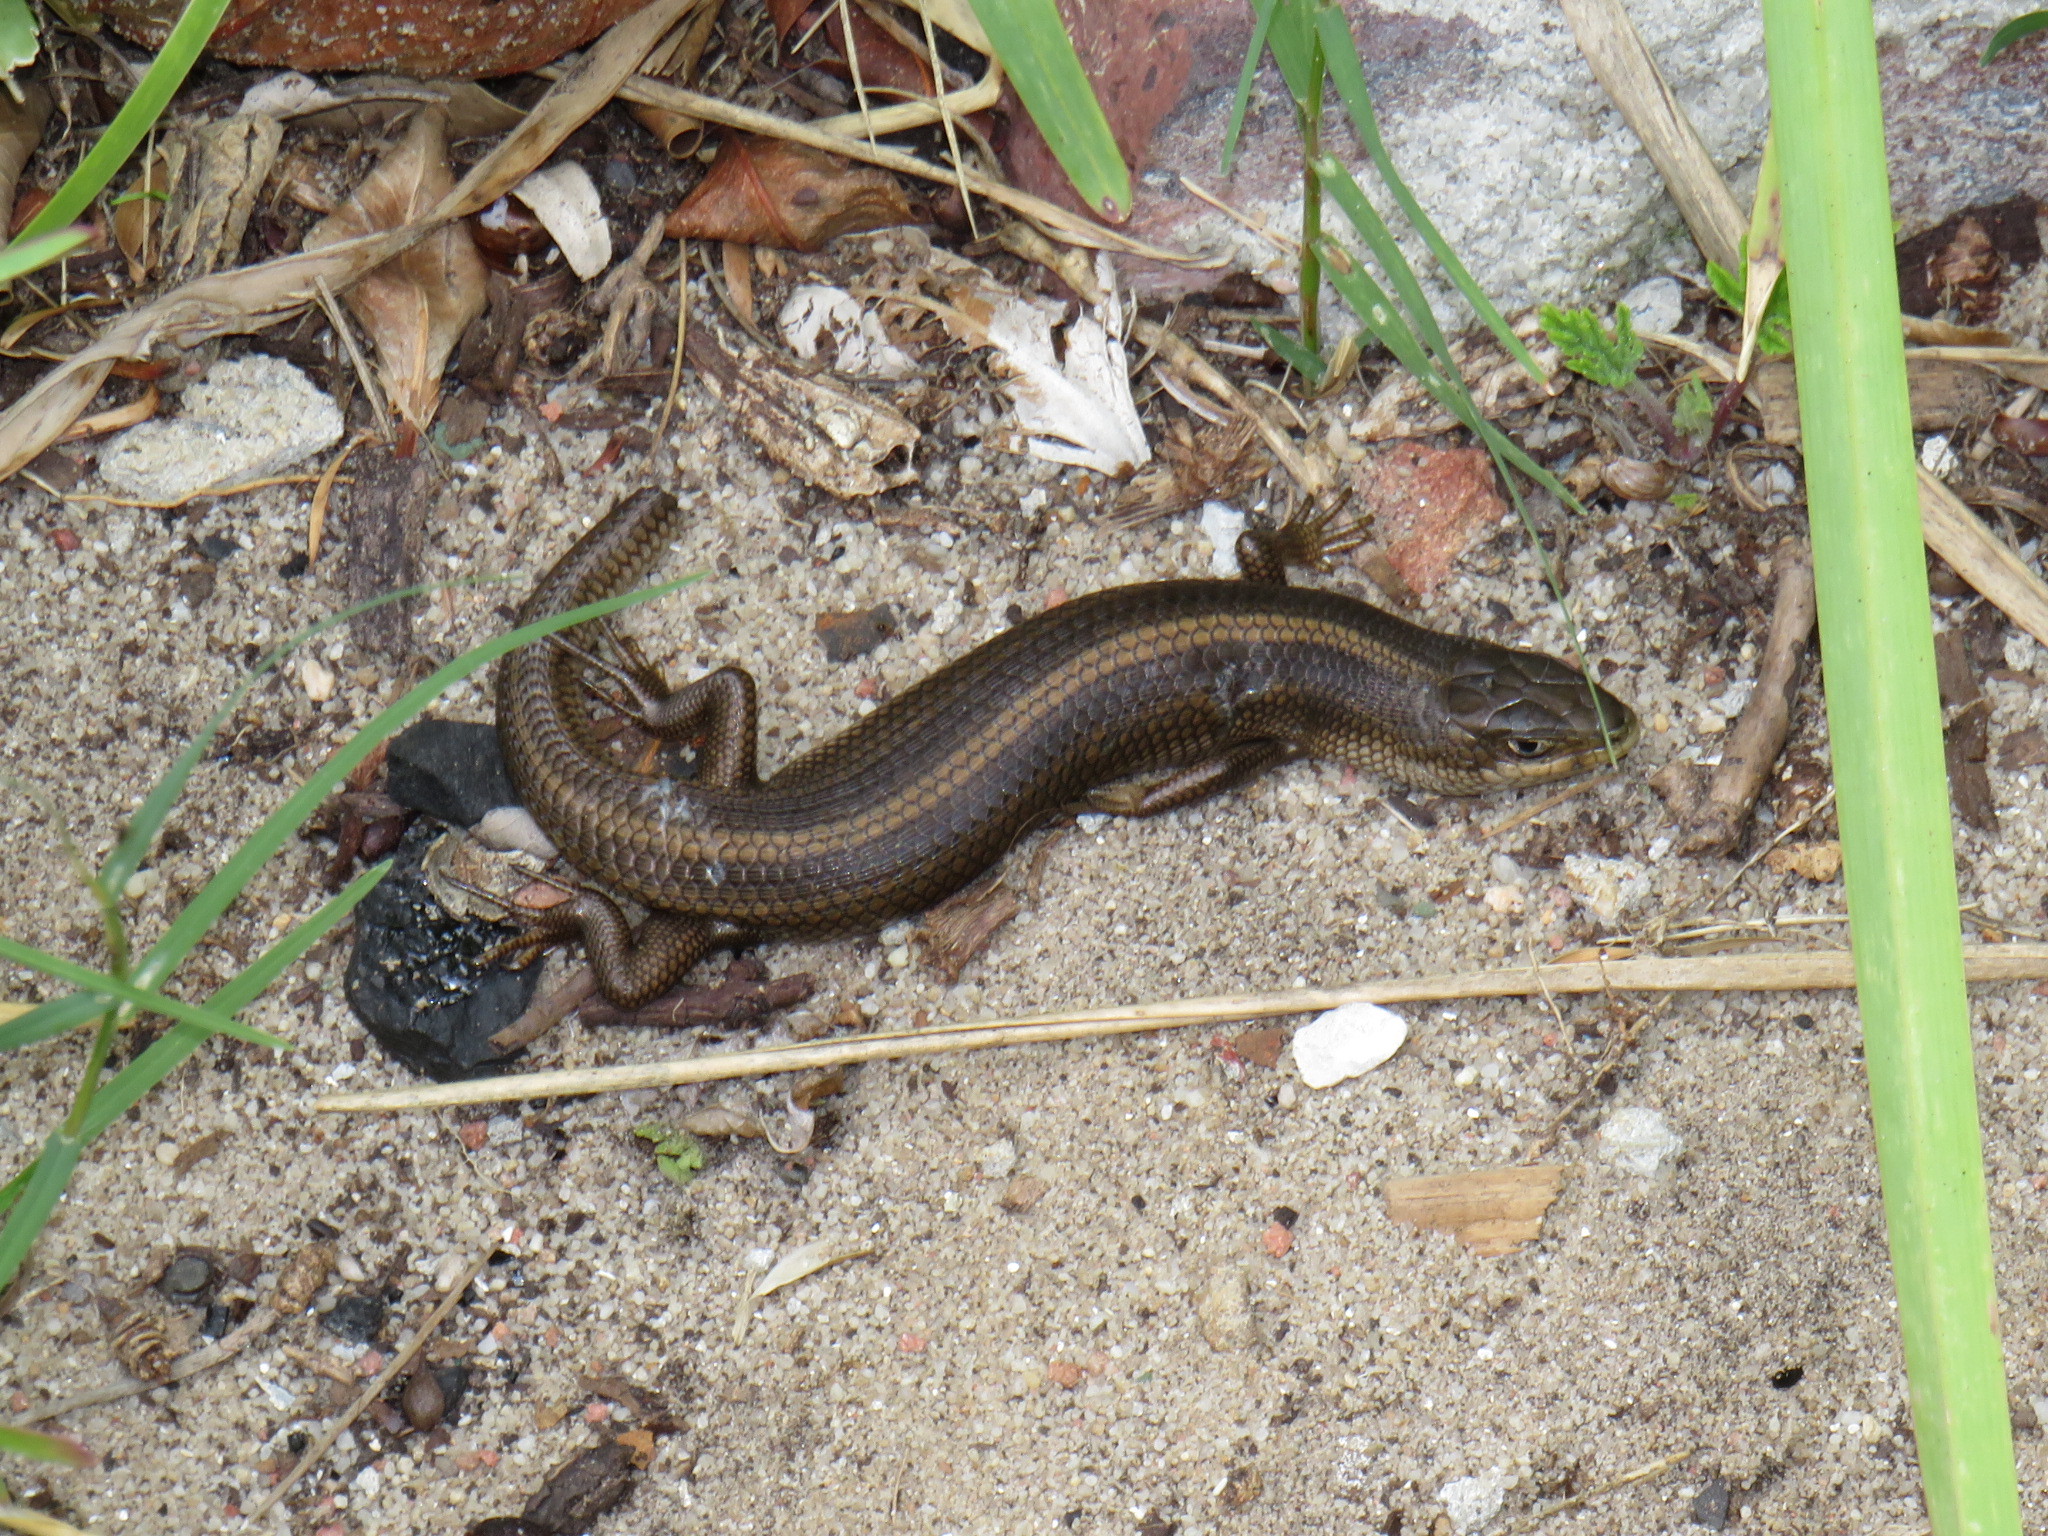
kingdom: Animalia
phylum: Chordata
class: Squamata
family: Scincidae
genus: Trachylepis
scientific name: Trachylepis capensis
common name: Cape skink
